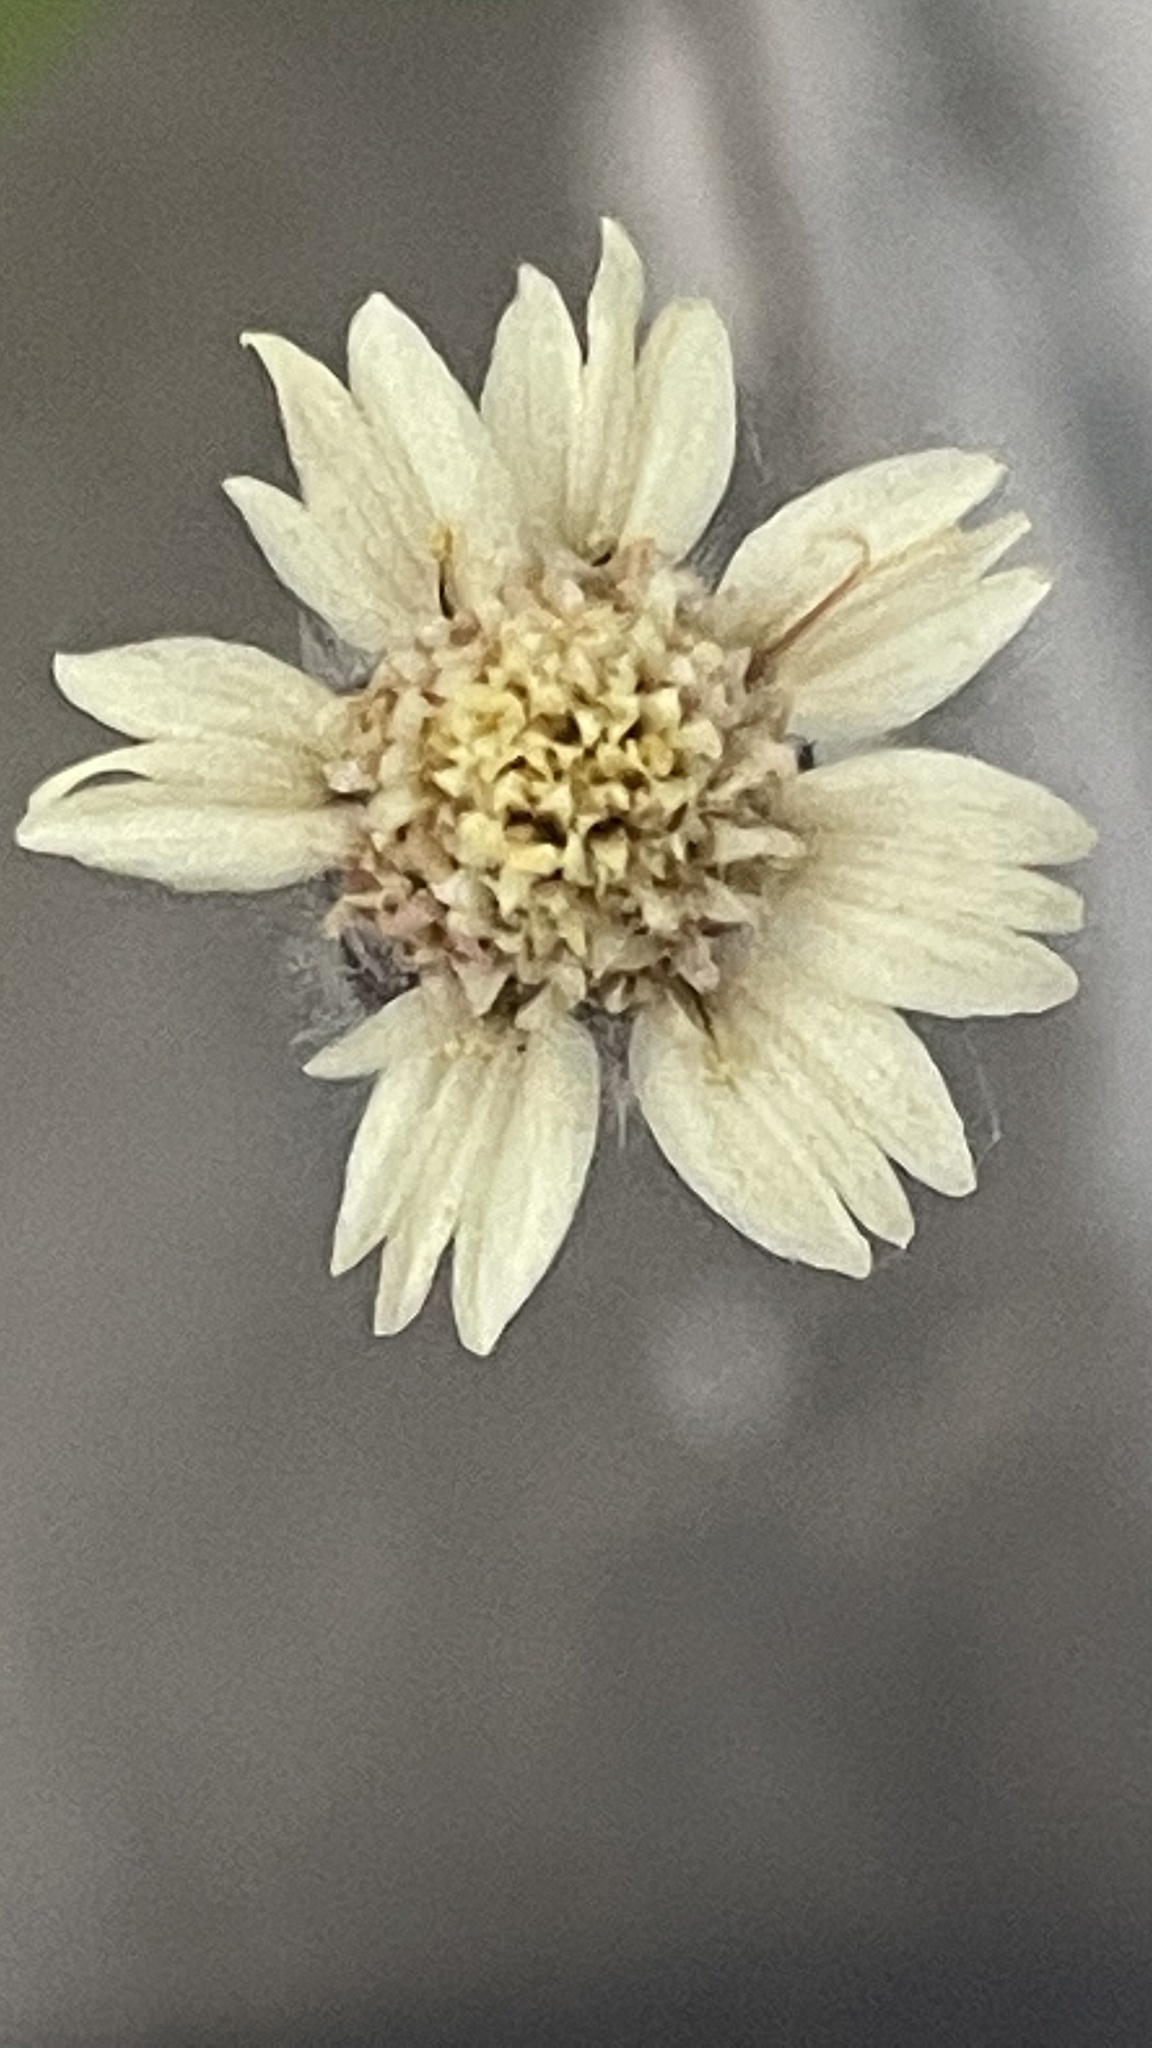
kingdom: Plantae
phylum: Tracheophyta
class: Magnoliopsida
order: Asterales
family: Asteraceae
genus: Tridax
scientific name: Tridax procumbens
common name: Coatbuttons
